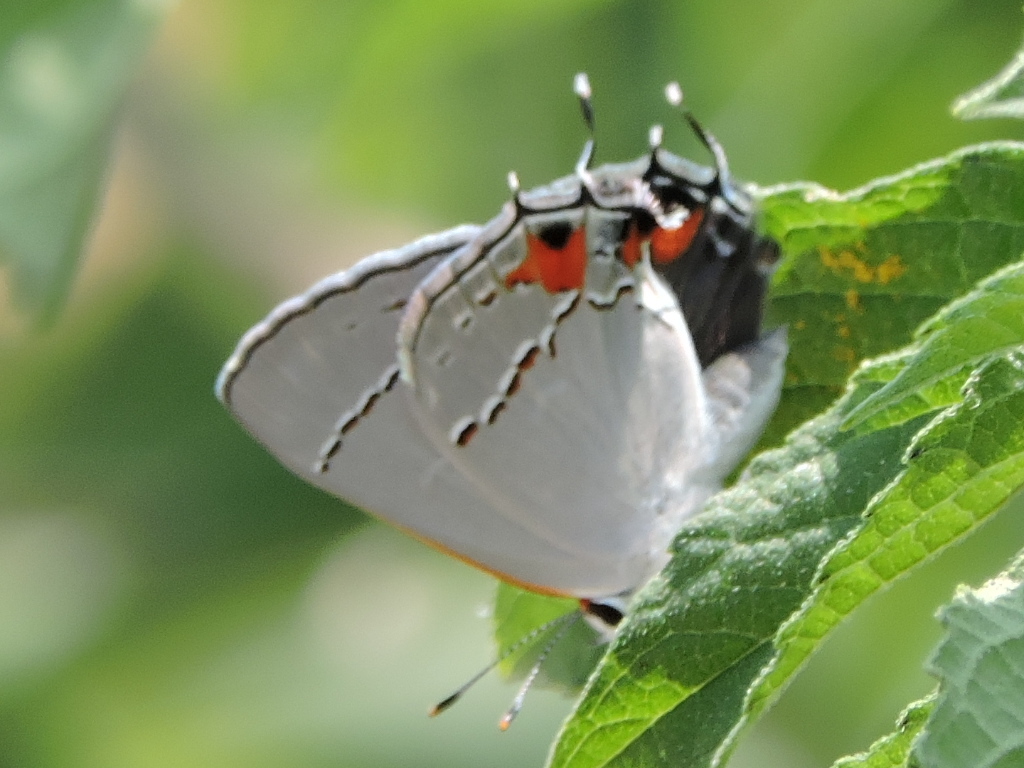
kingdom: Animalia
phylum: Arthropoda
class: Insecta
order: Lepidoptera
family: Lycaenidae
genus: Strymon
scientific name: Strymon melinus
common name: Gray hairstreak
